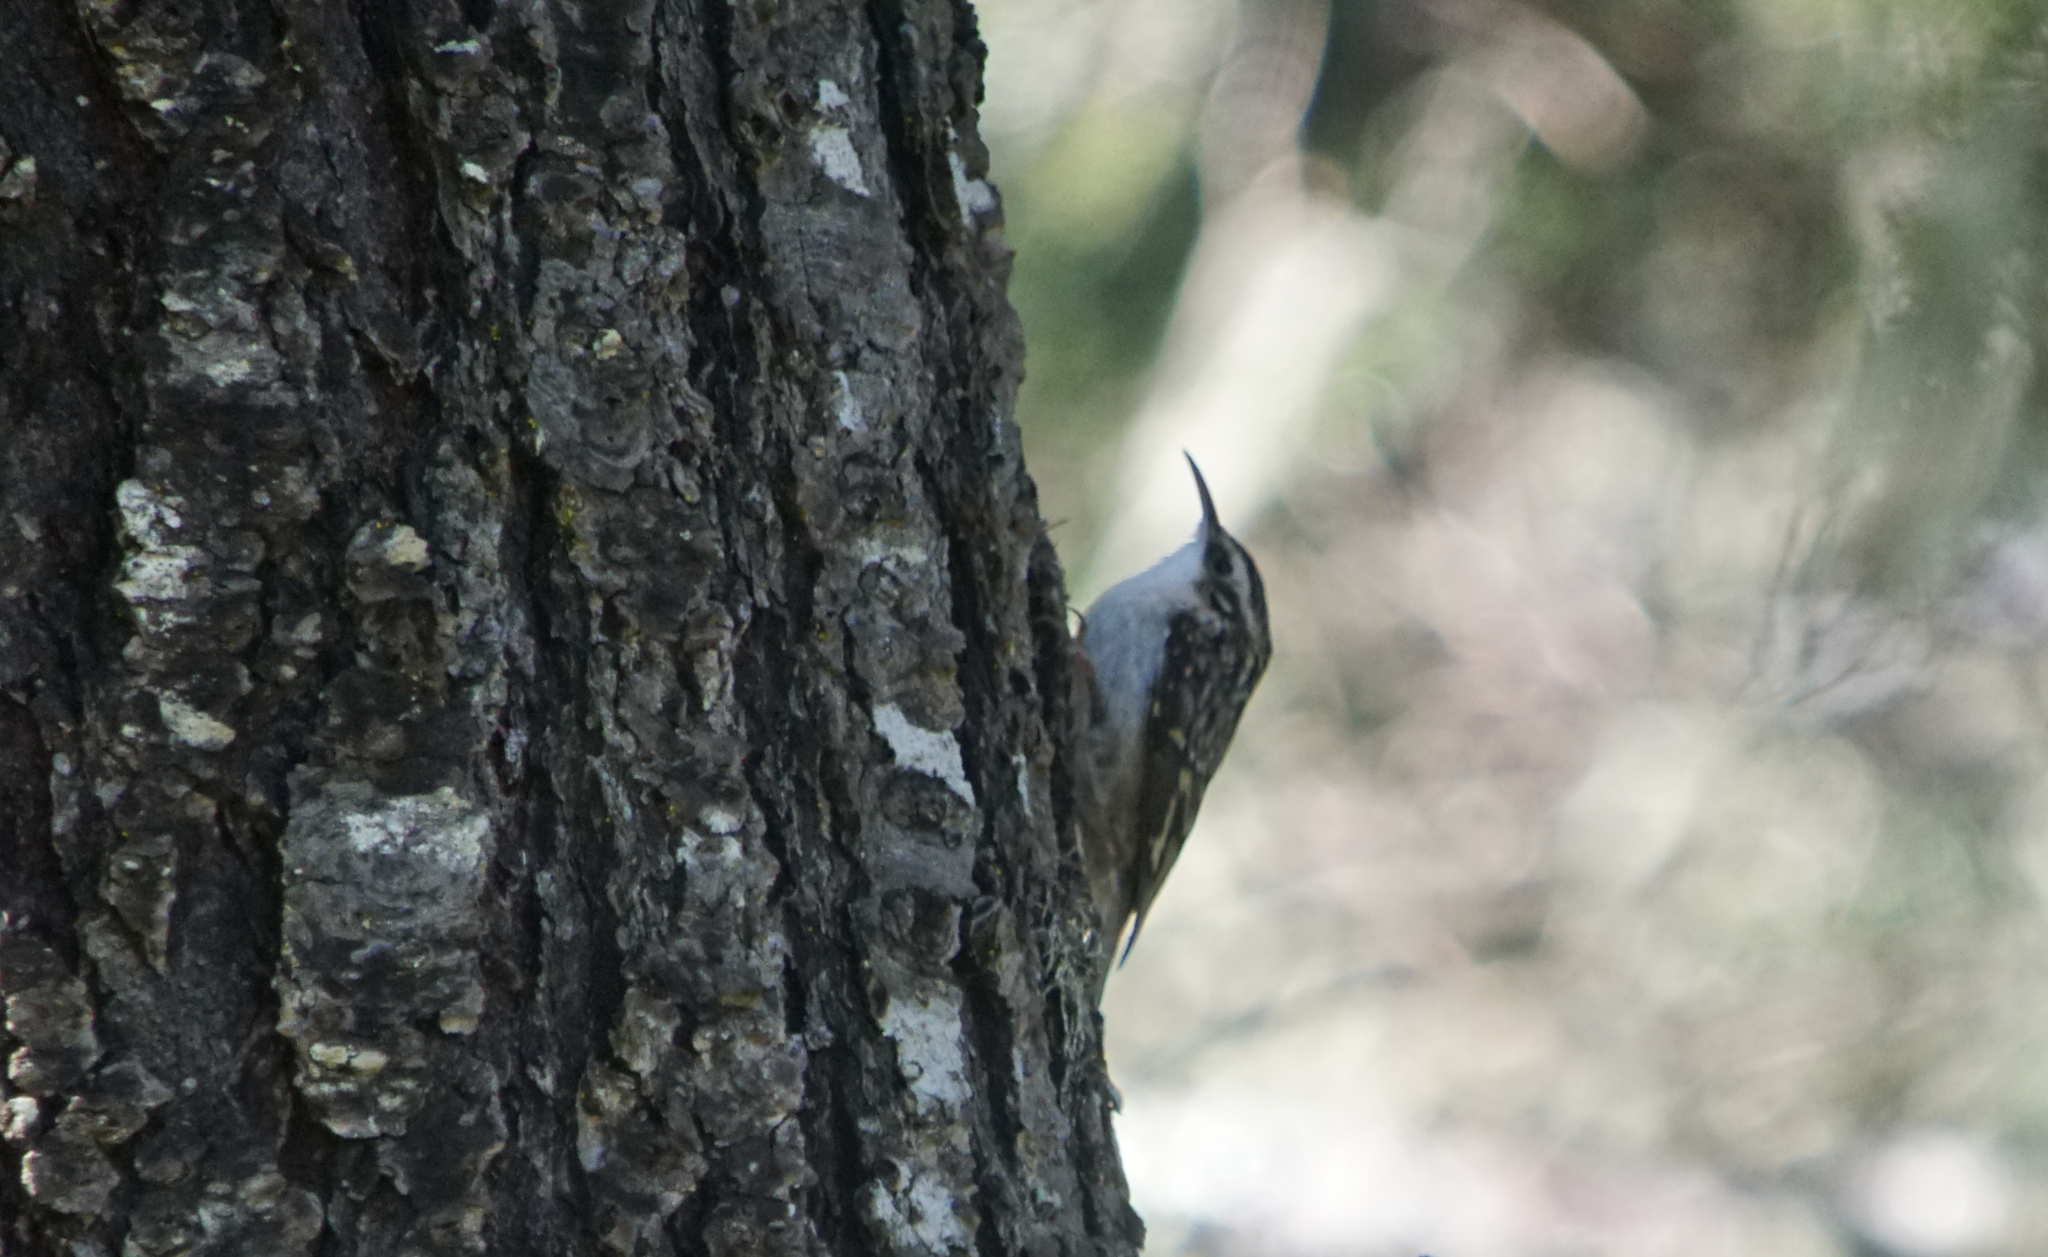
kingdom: Animalia
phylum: Chordata
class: Aves
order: Passeriformes
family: Certhiidae
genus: Certhia
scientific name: Certhia americana
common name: Brown creeper
